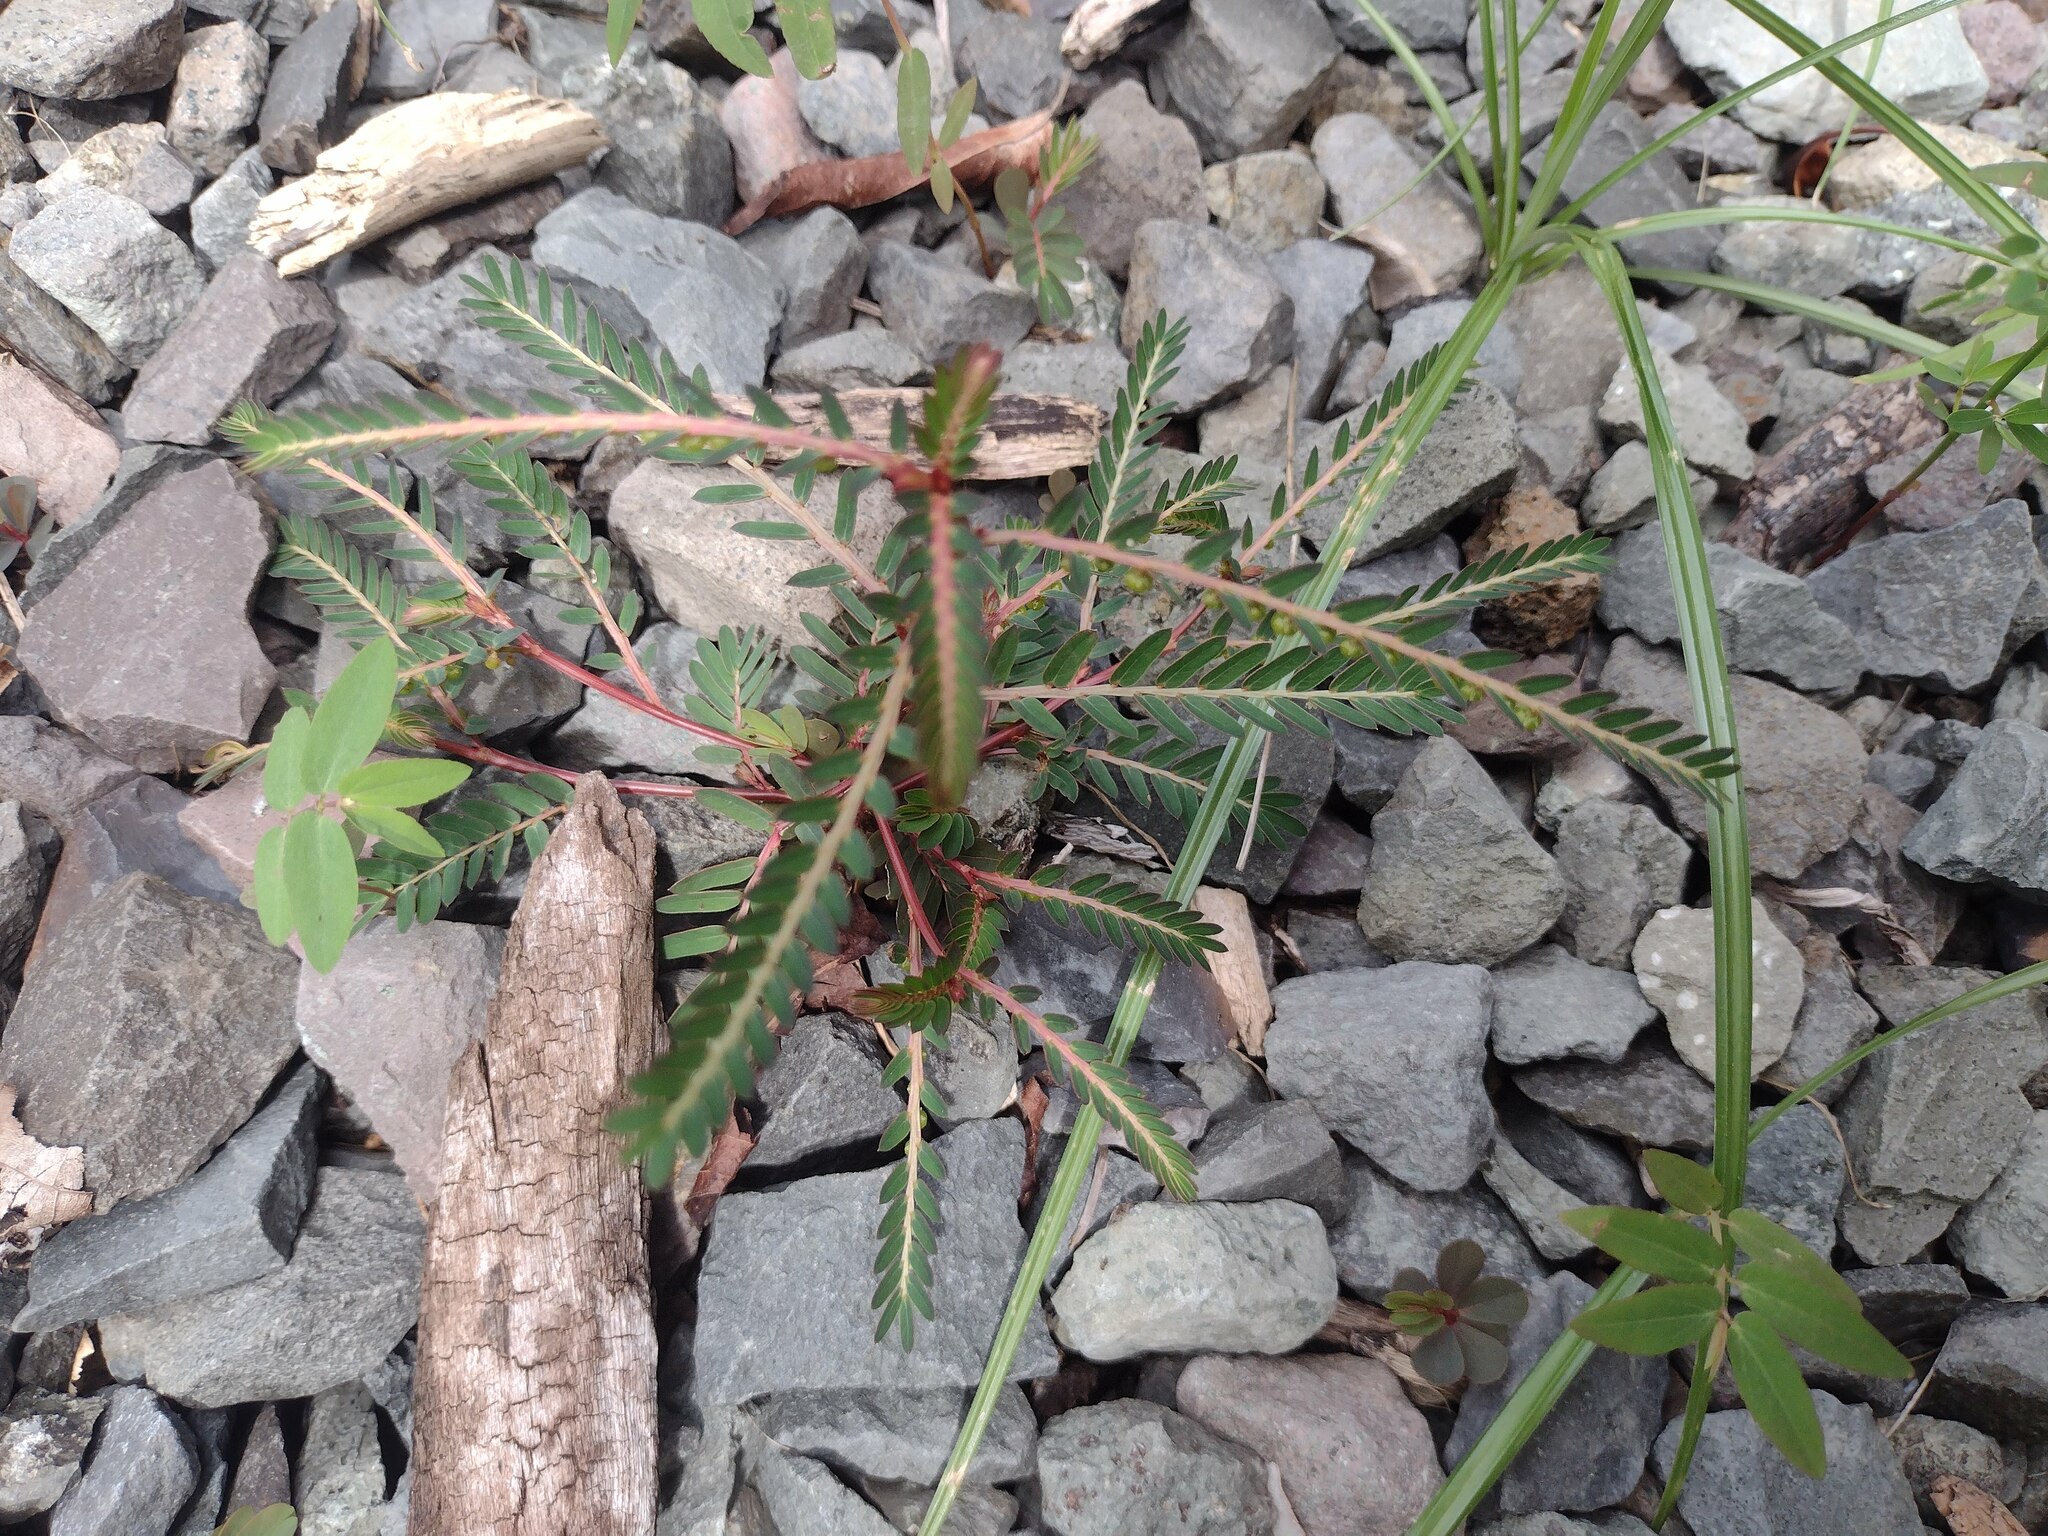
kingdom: Plantae
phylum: Tracheophyta
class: Magnoliopsida
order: Malpighiales
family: Phyllanthaceae
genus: Phyllanthus
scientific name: Phyllanthus urinaria
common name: Chamber bitter
